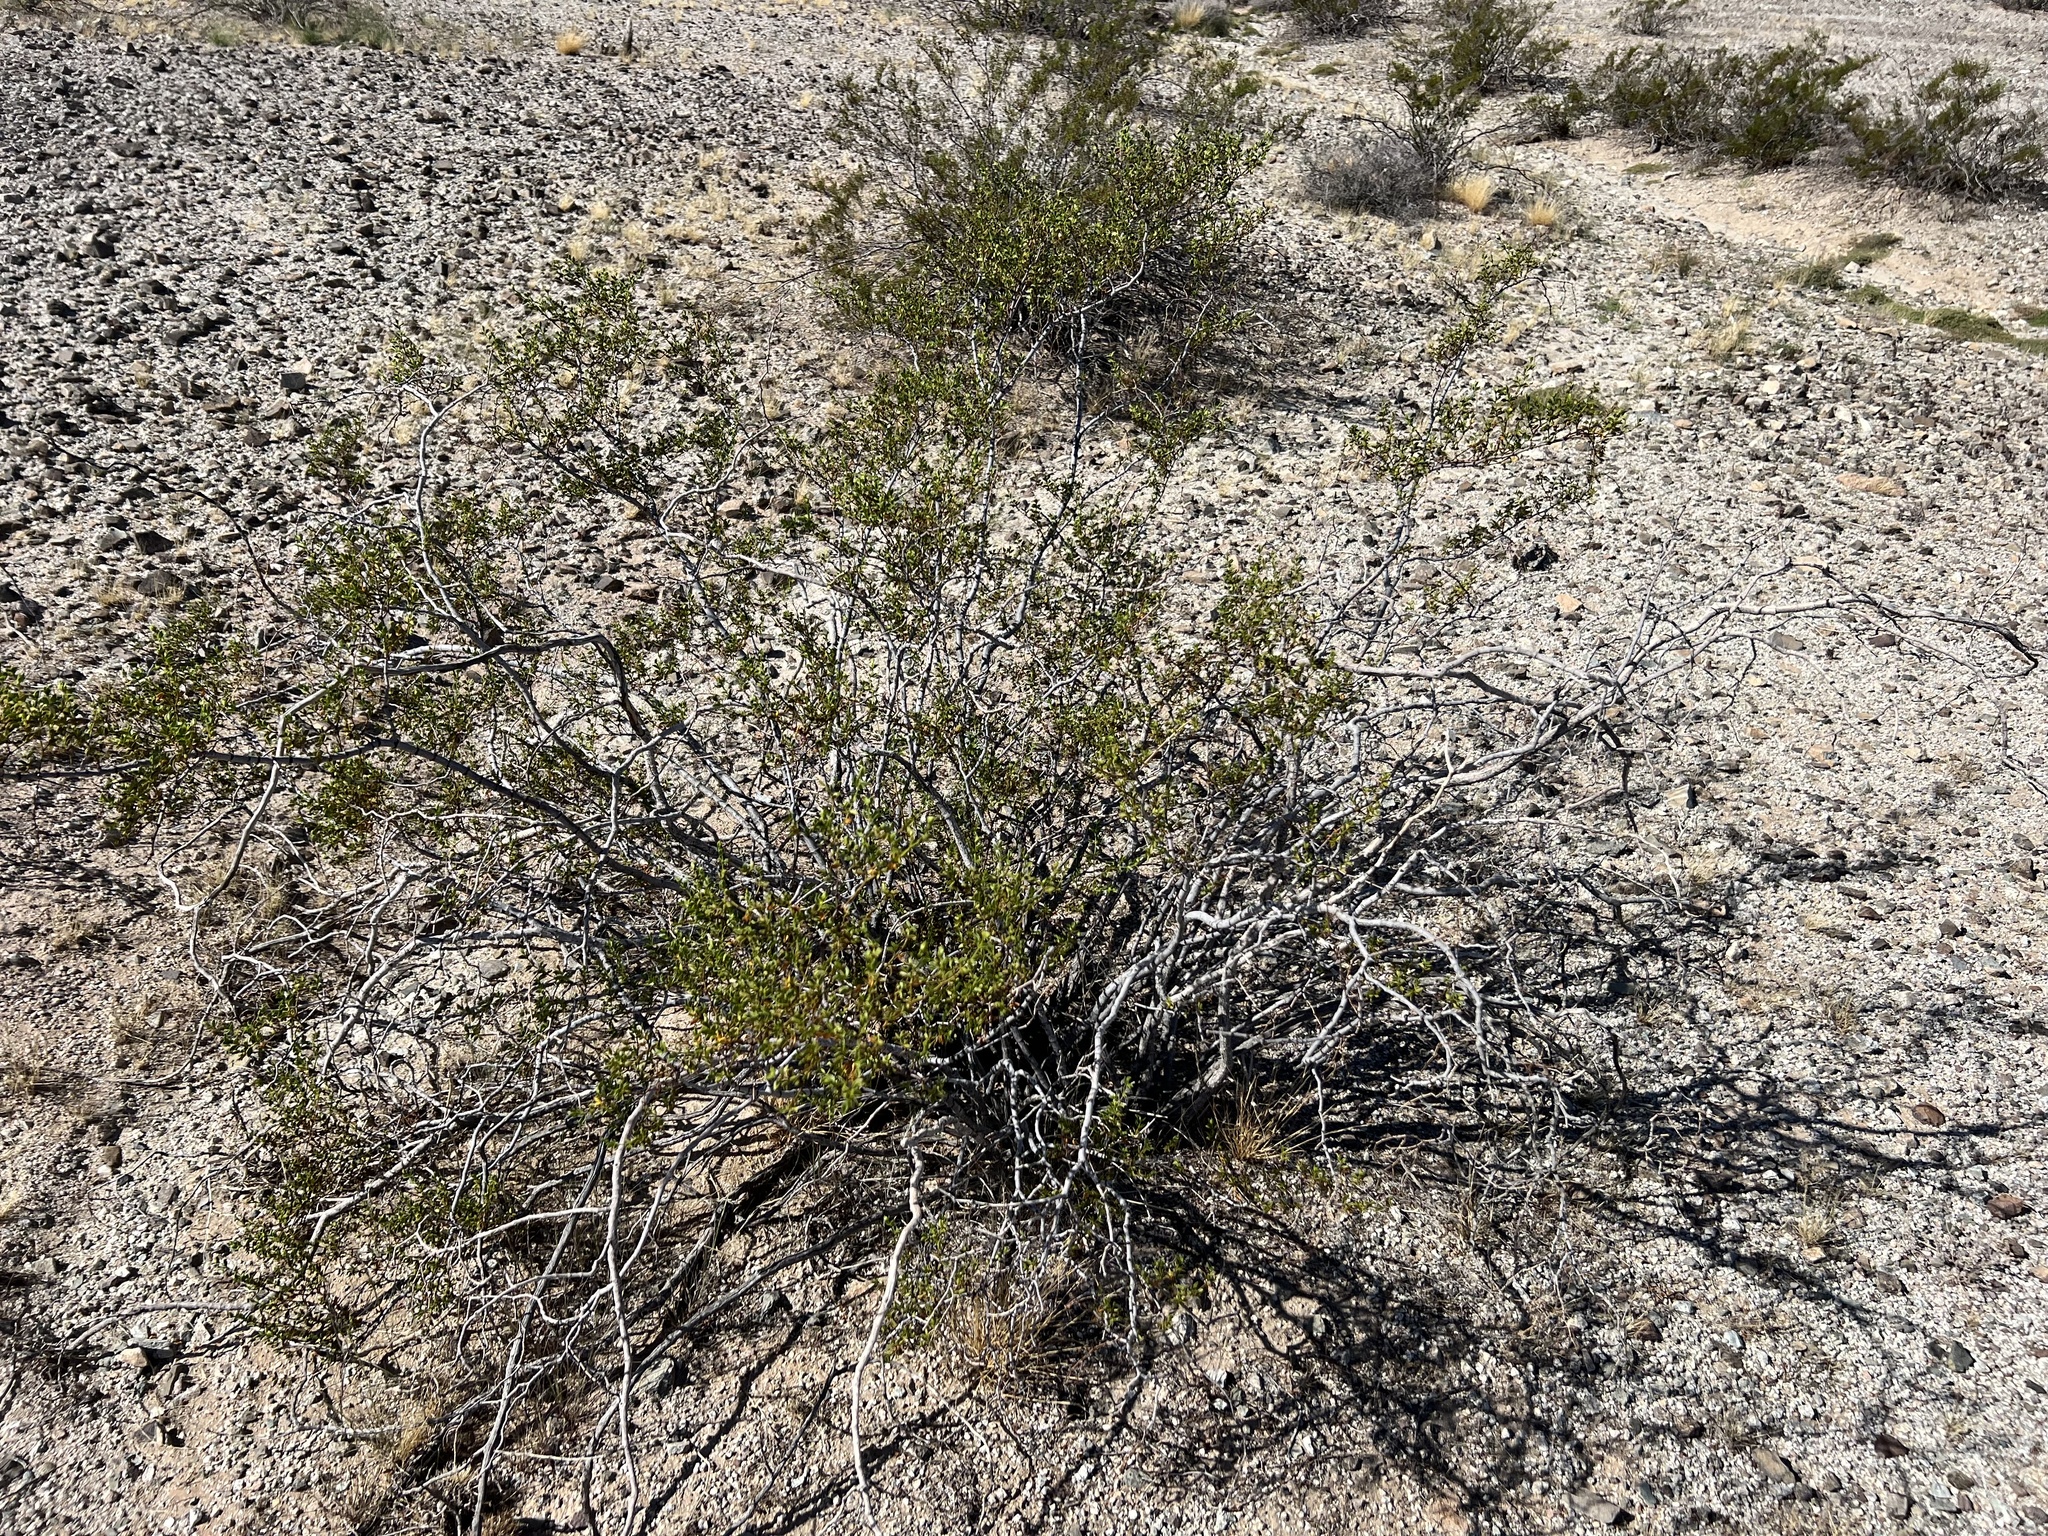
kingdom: Plantae
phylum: Tracheophyta
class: Magnoliopsida
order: Zygophyllales
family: Zygophyllaceae
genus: Larrea
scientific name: Larrea tridentata
